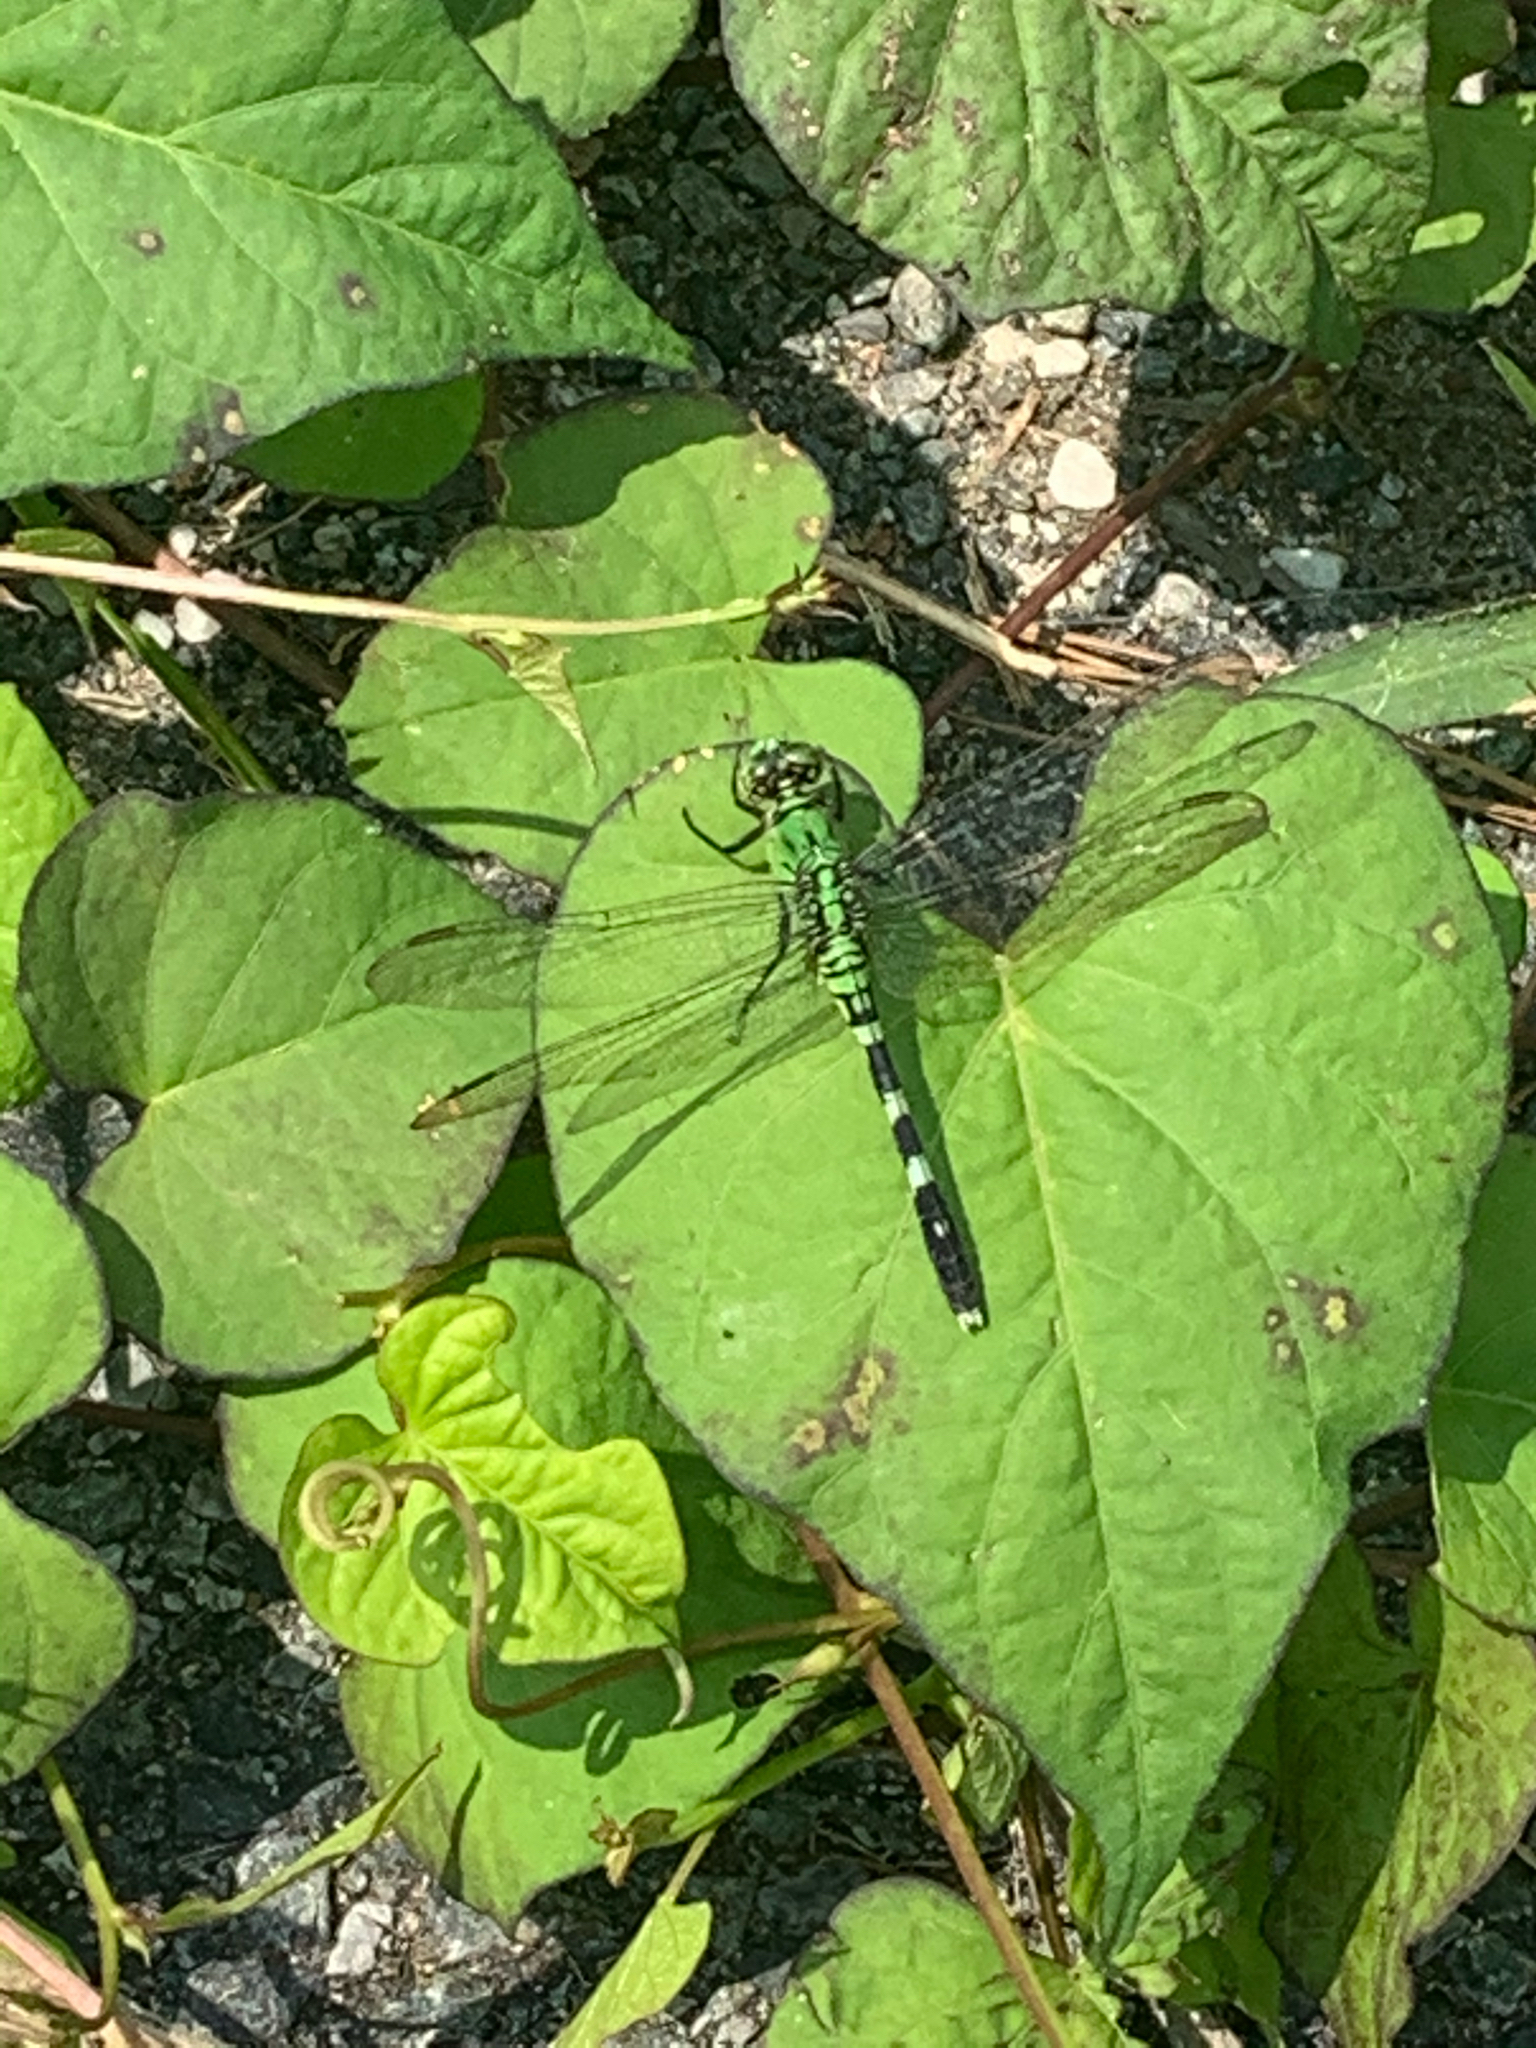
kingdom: Animalia
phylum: Arthropoda
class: Insecta
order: Odonata
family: Libellulidae
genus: Erythemis
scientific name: Erythemis simplicicollis
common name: Eastern pondhawk
